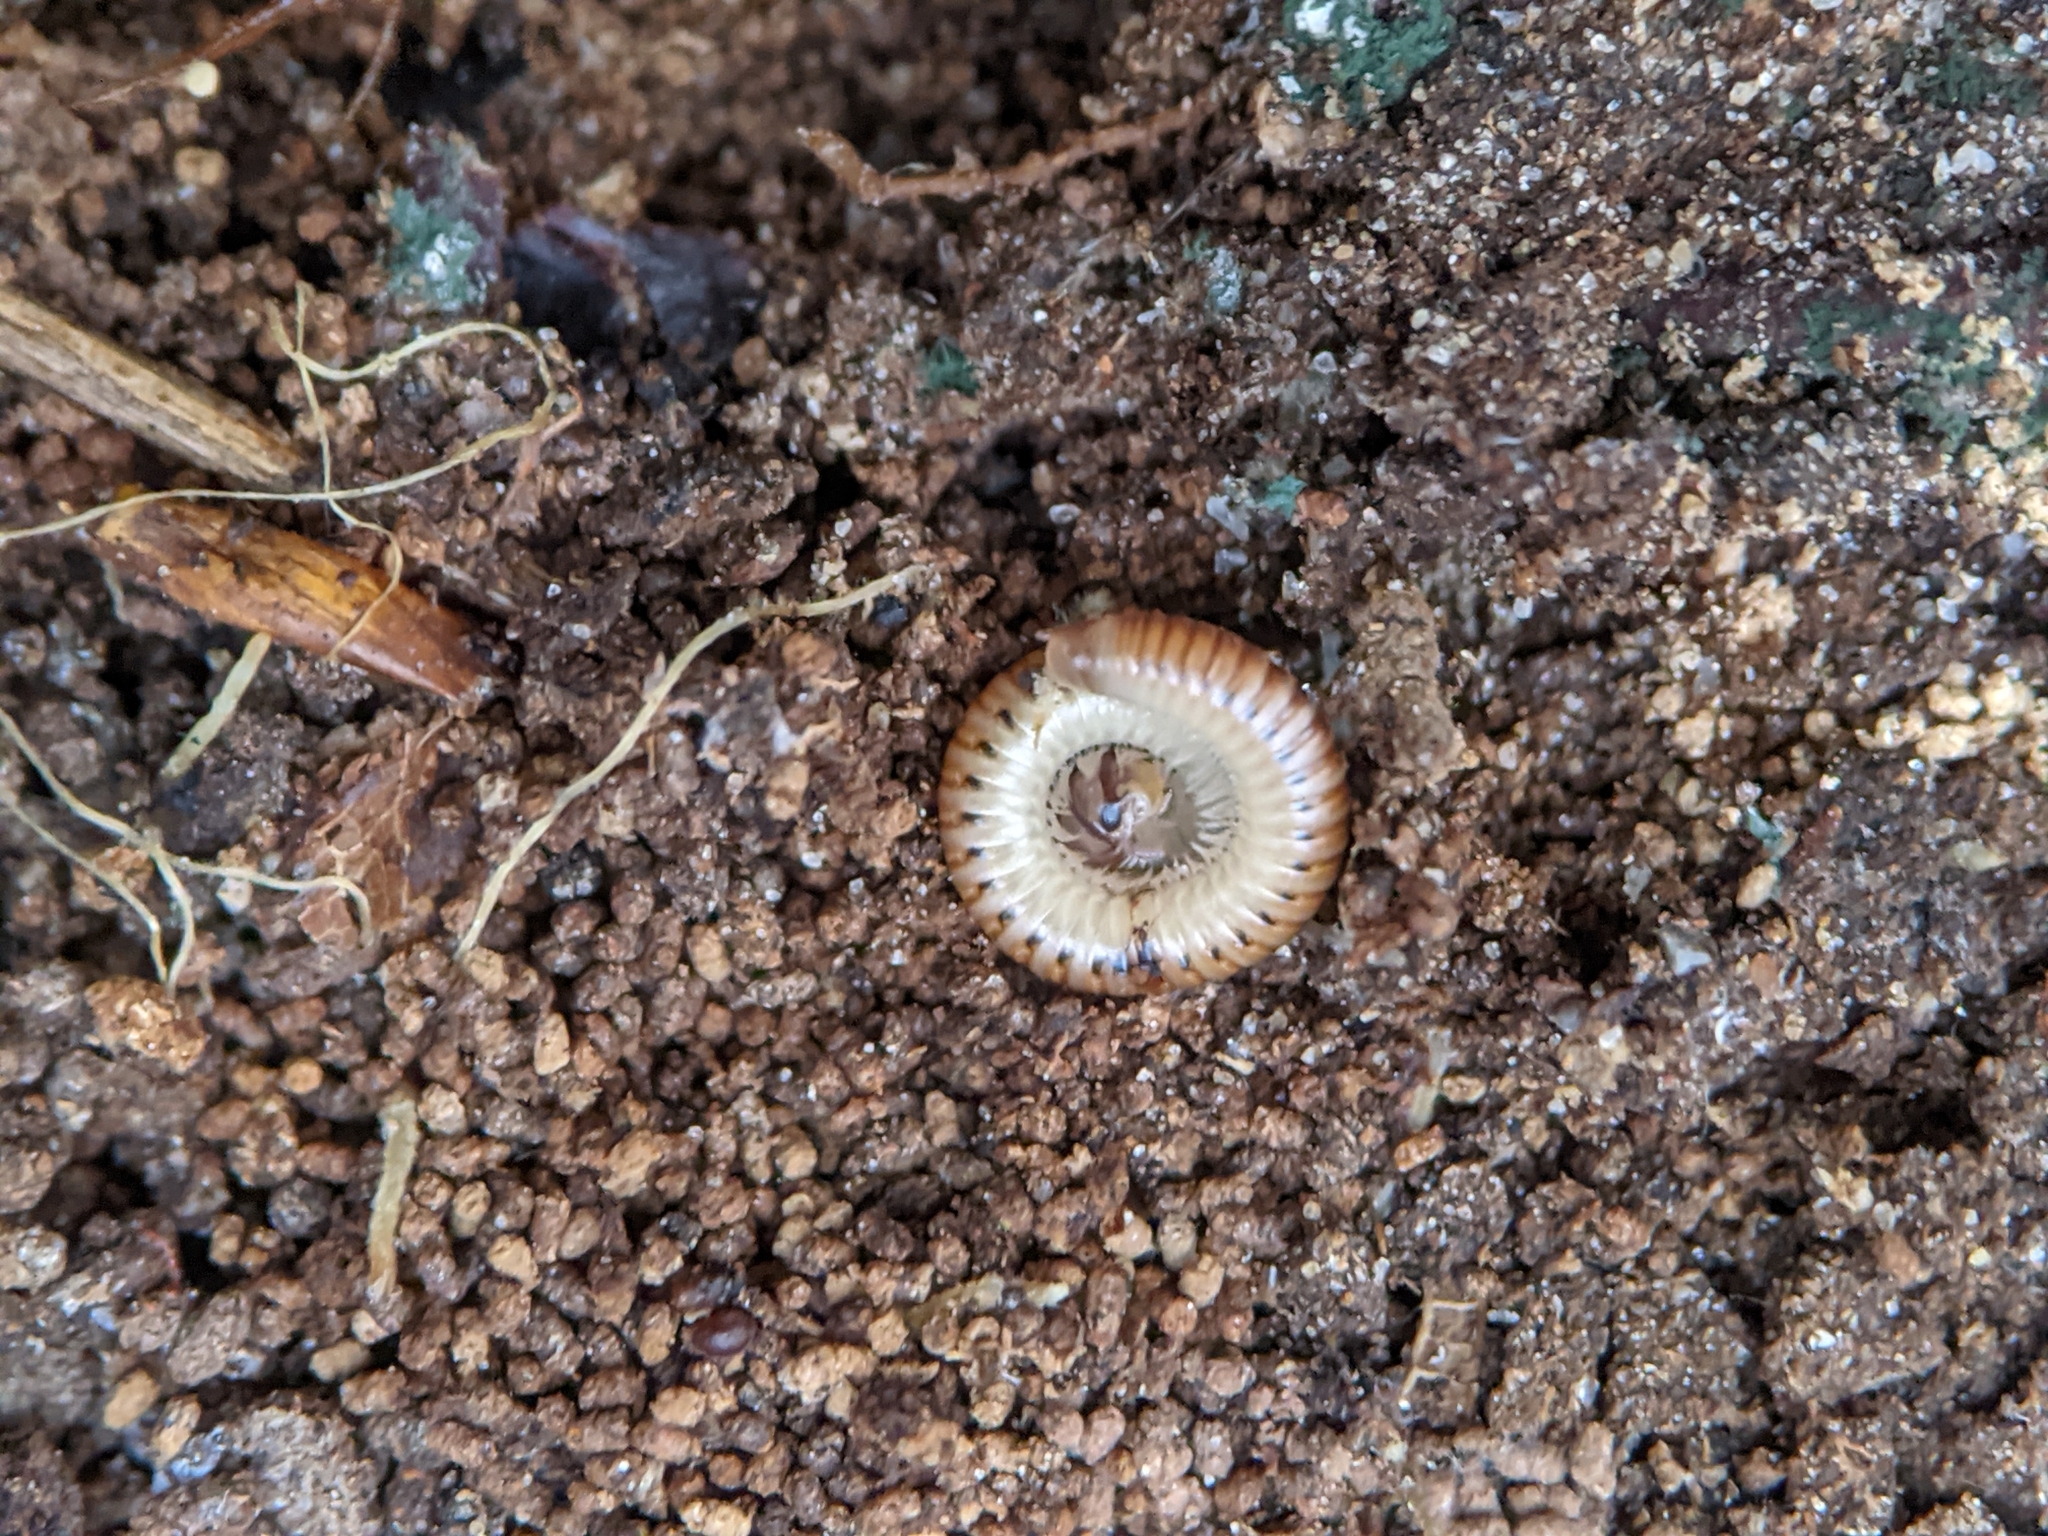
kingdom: Animalia
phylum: Arthropoda
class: Diplopoda
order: Julida
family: Julidae
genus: Cylindroiulus
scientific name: Cylindroiulus punctatus
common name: Blunt-tailed millipede
